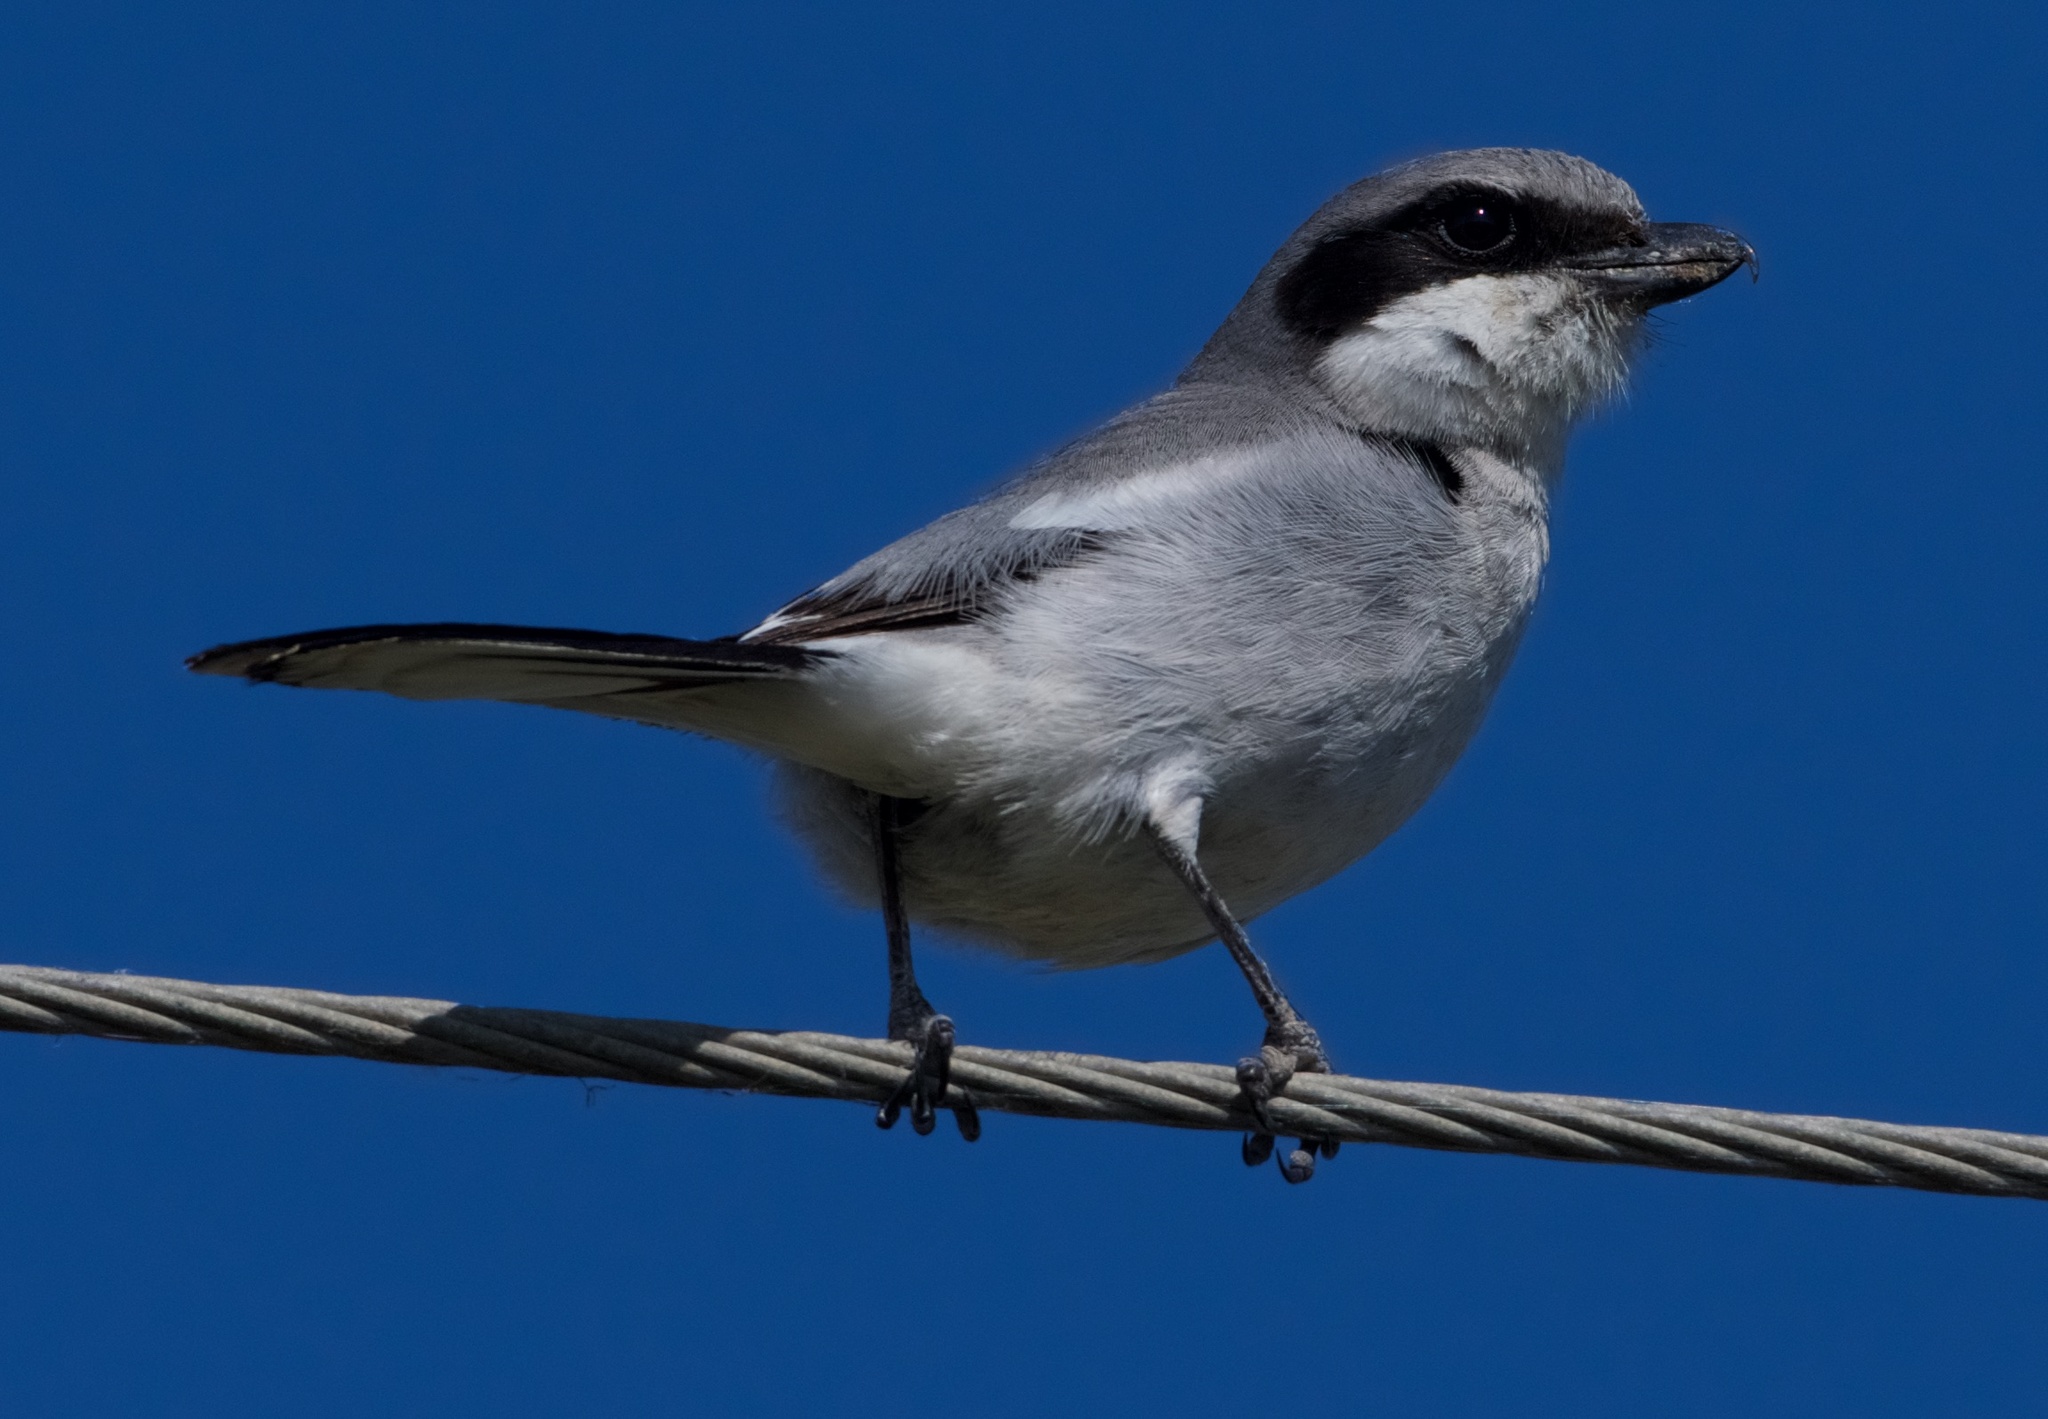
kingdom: Animalia
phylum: Chordata
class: Aves
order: Passeriformes
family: Laniidae
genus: Lanius
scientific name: Lanius ludovicianus
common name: Loggerhead shrike
